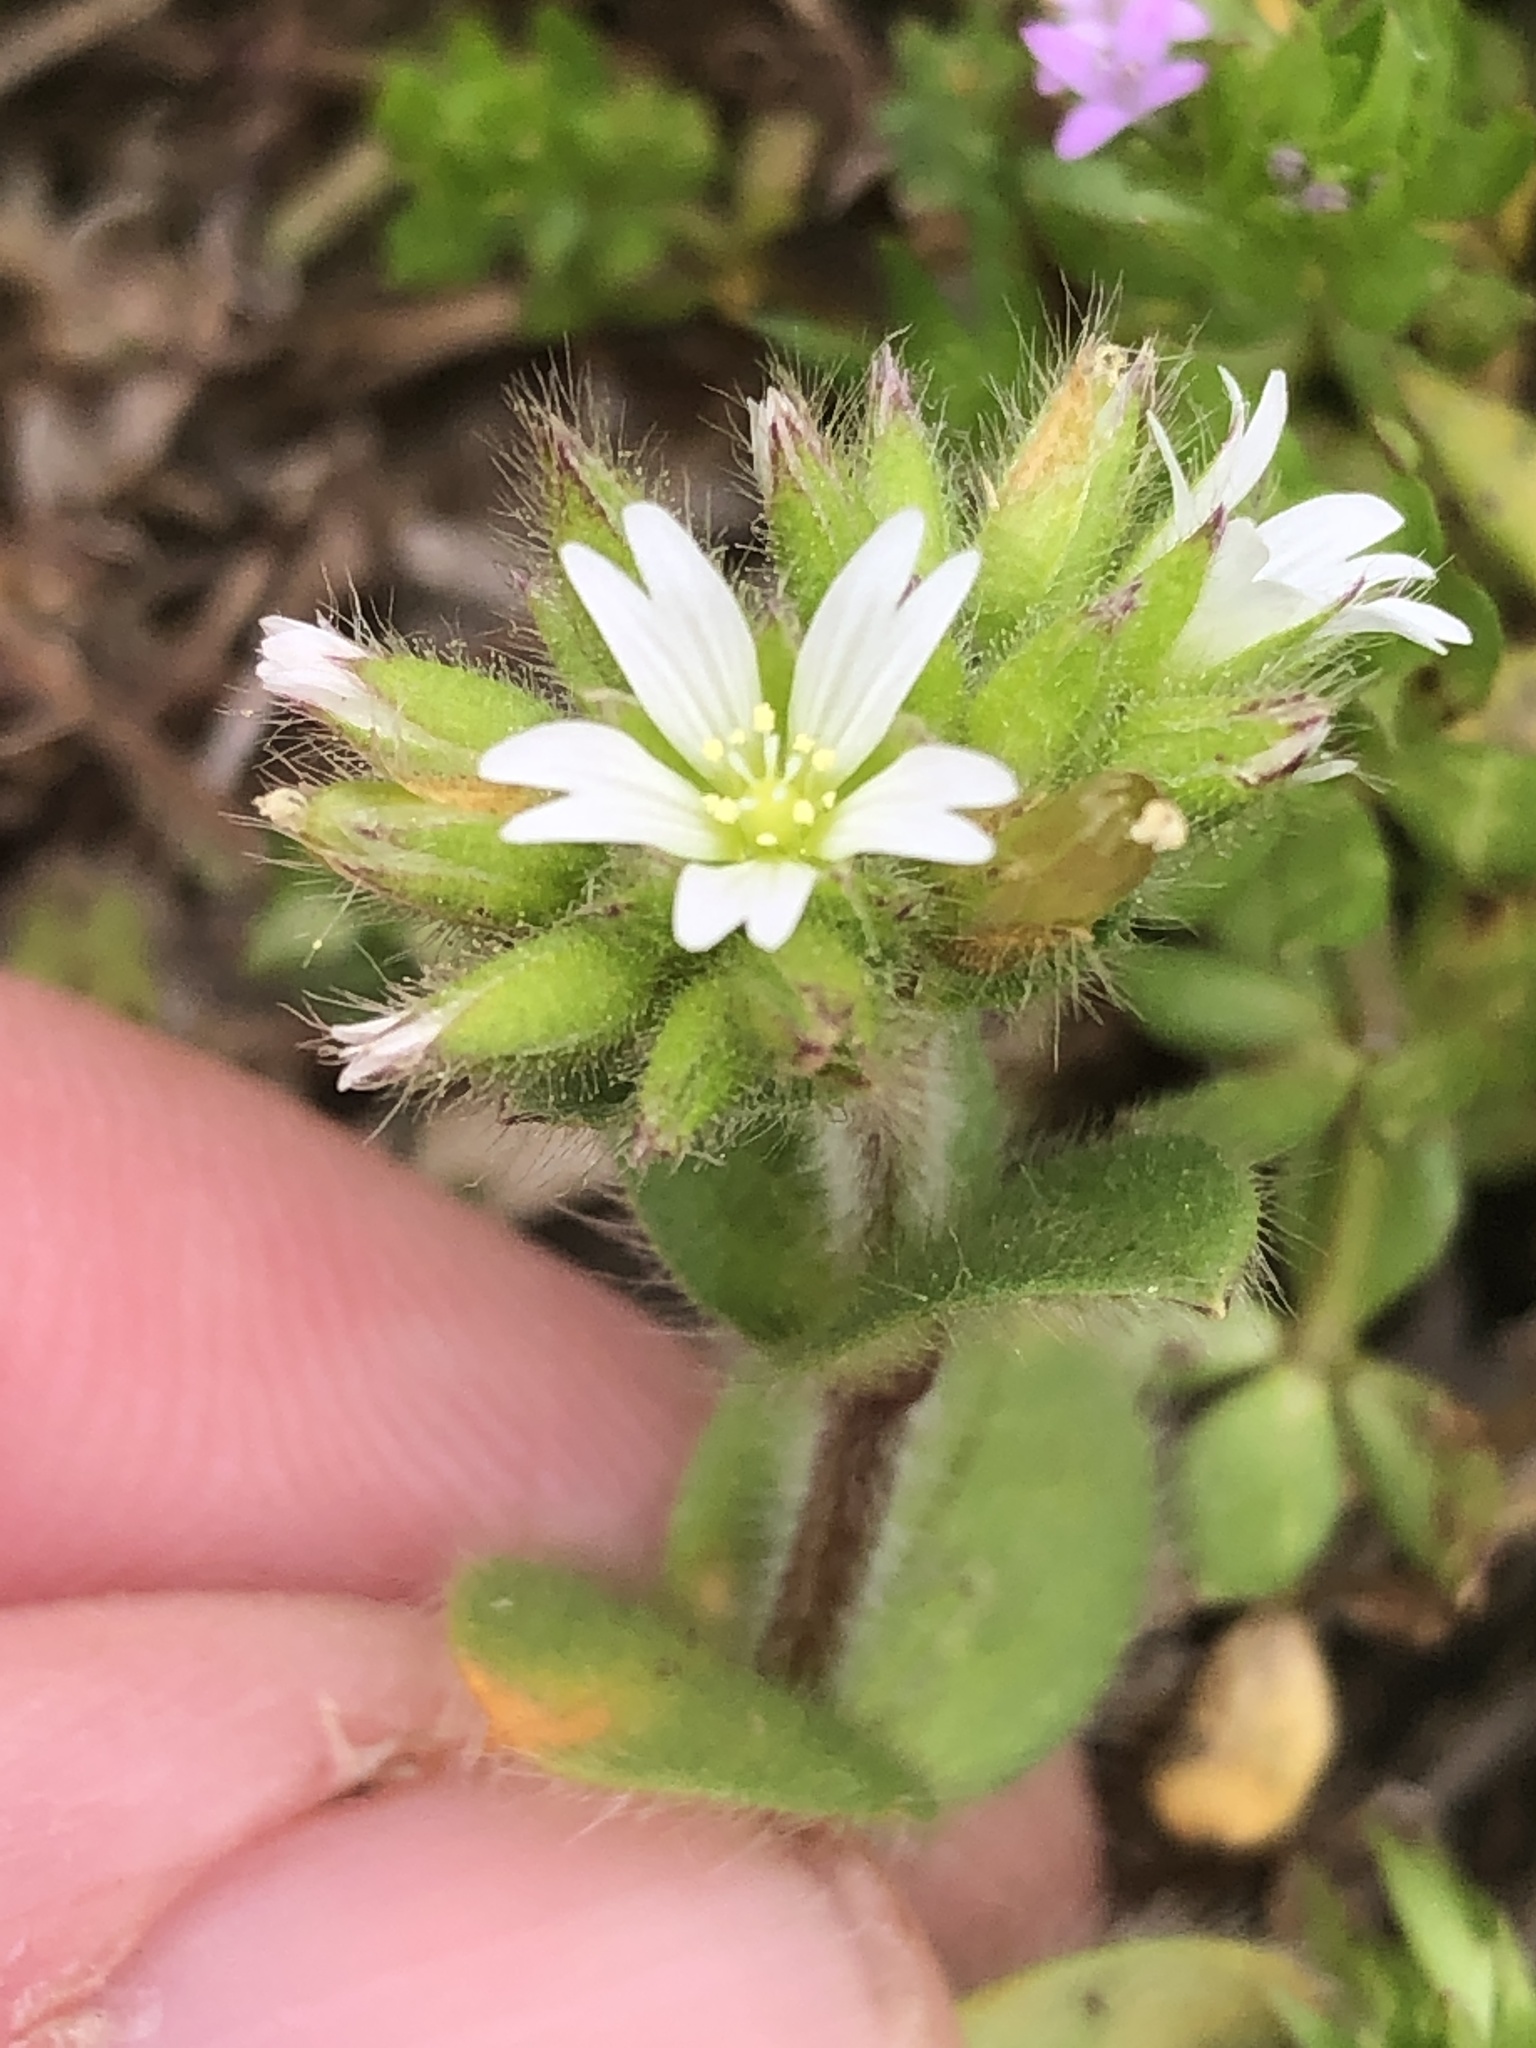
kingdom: Plantae
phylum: Tracheophyta
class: Magnoliopsida
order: Caryophyllales
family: Caryophyllaceae
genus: Cerastium
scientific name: Cerastium glomeratum
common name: Sticky chickweed
